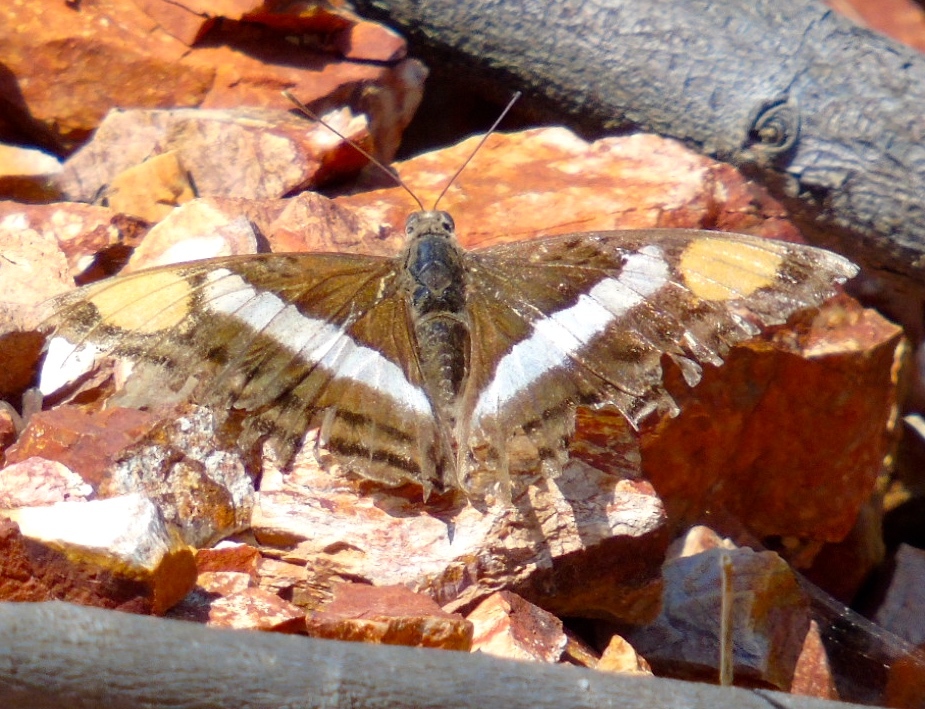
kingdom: Animalia
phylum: Arthropoda
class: Insecta
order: Lepidoptera
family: Nymphalidae
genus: Doxocopa
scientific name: Doxocopa laure
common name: Silver emperor
